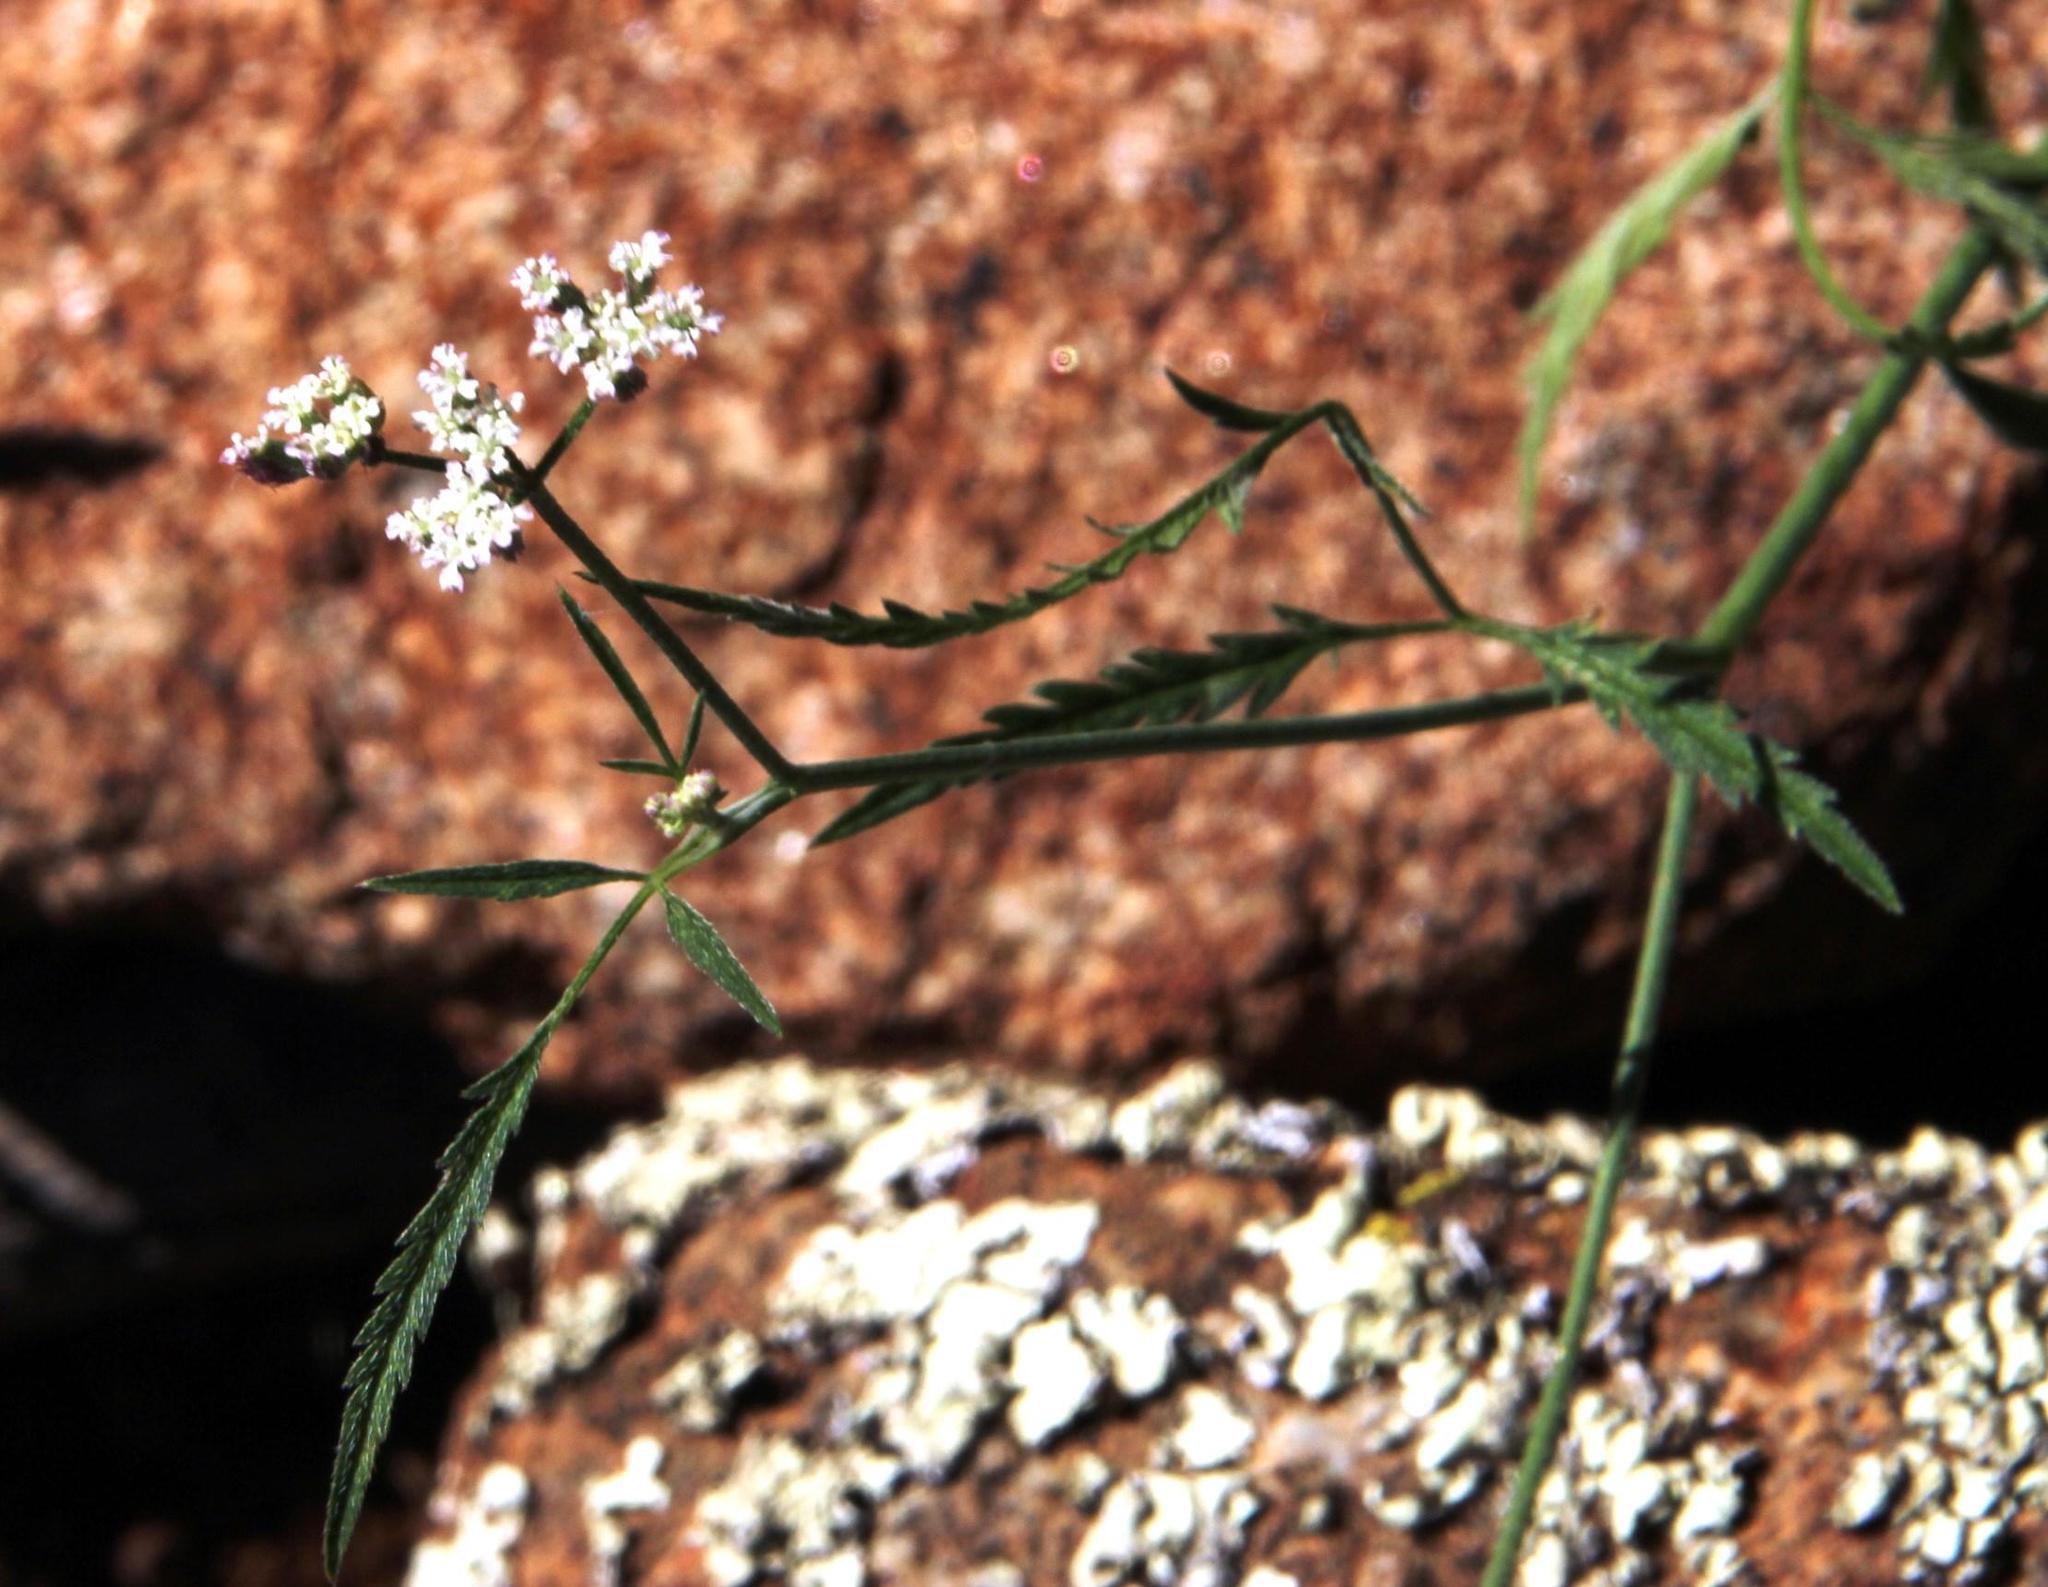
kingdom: Plantae
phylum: Tracheophyta
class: Magnoliopsida
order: Apiales
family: Apiaceae
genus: Torilis
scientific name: Torilis africana
